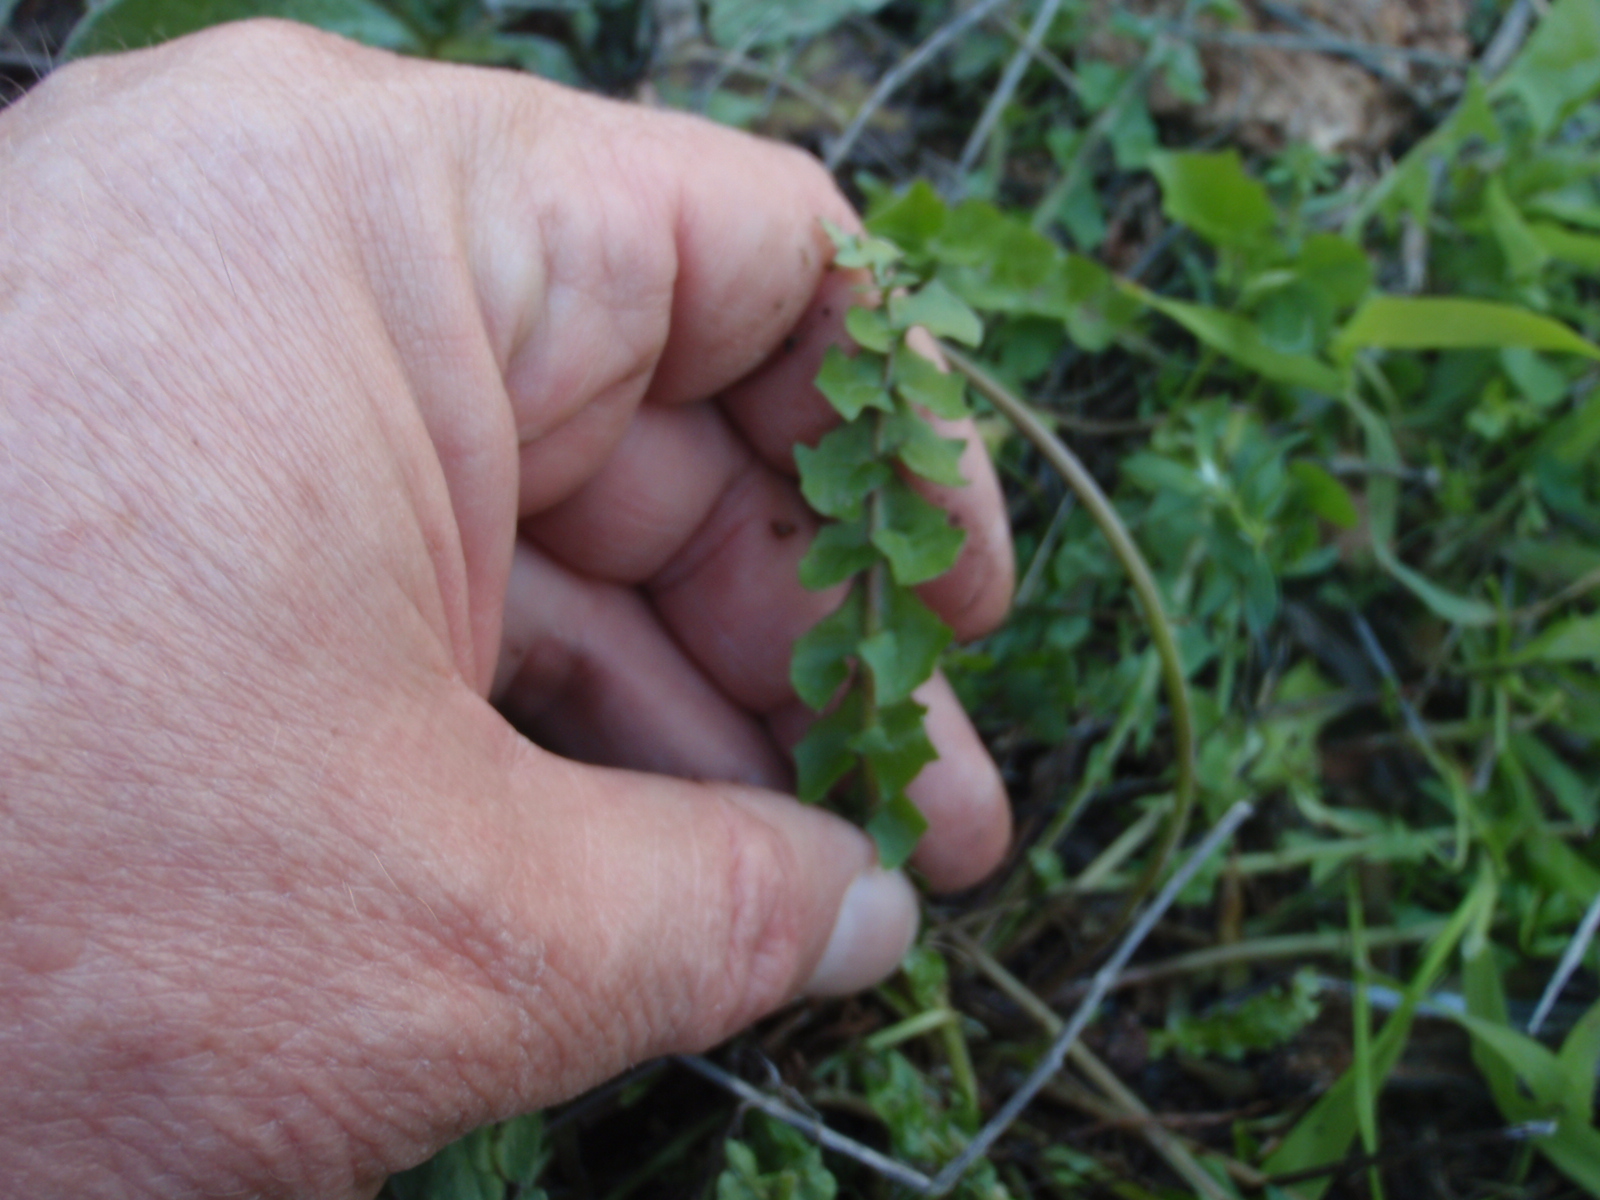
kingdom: Plantae
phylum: Tracheophyta
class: Magnoliopsida
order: Asterales
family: Asteraceae
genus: Hyoseris
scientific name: Hyoseris radiata
